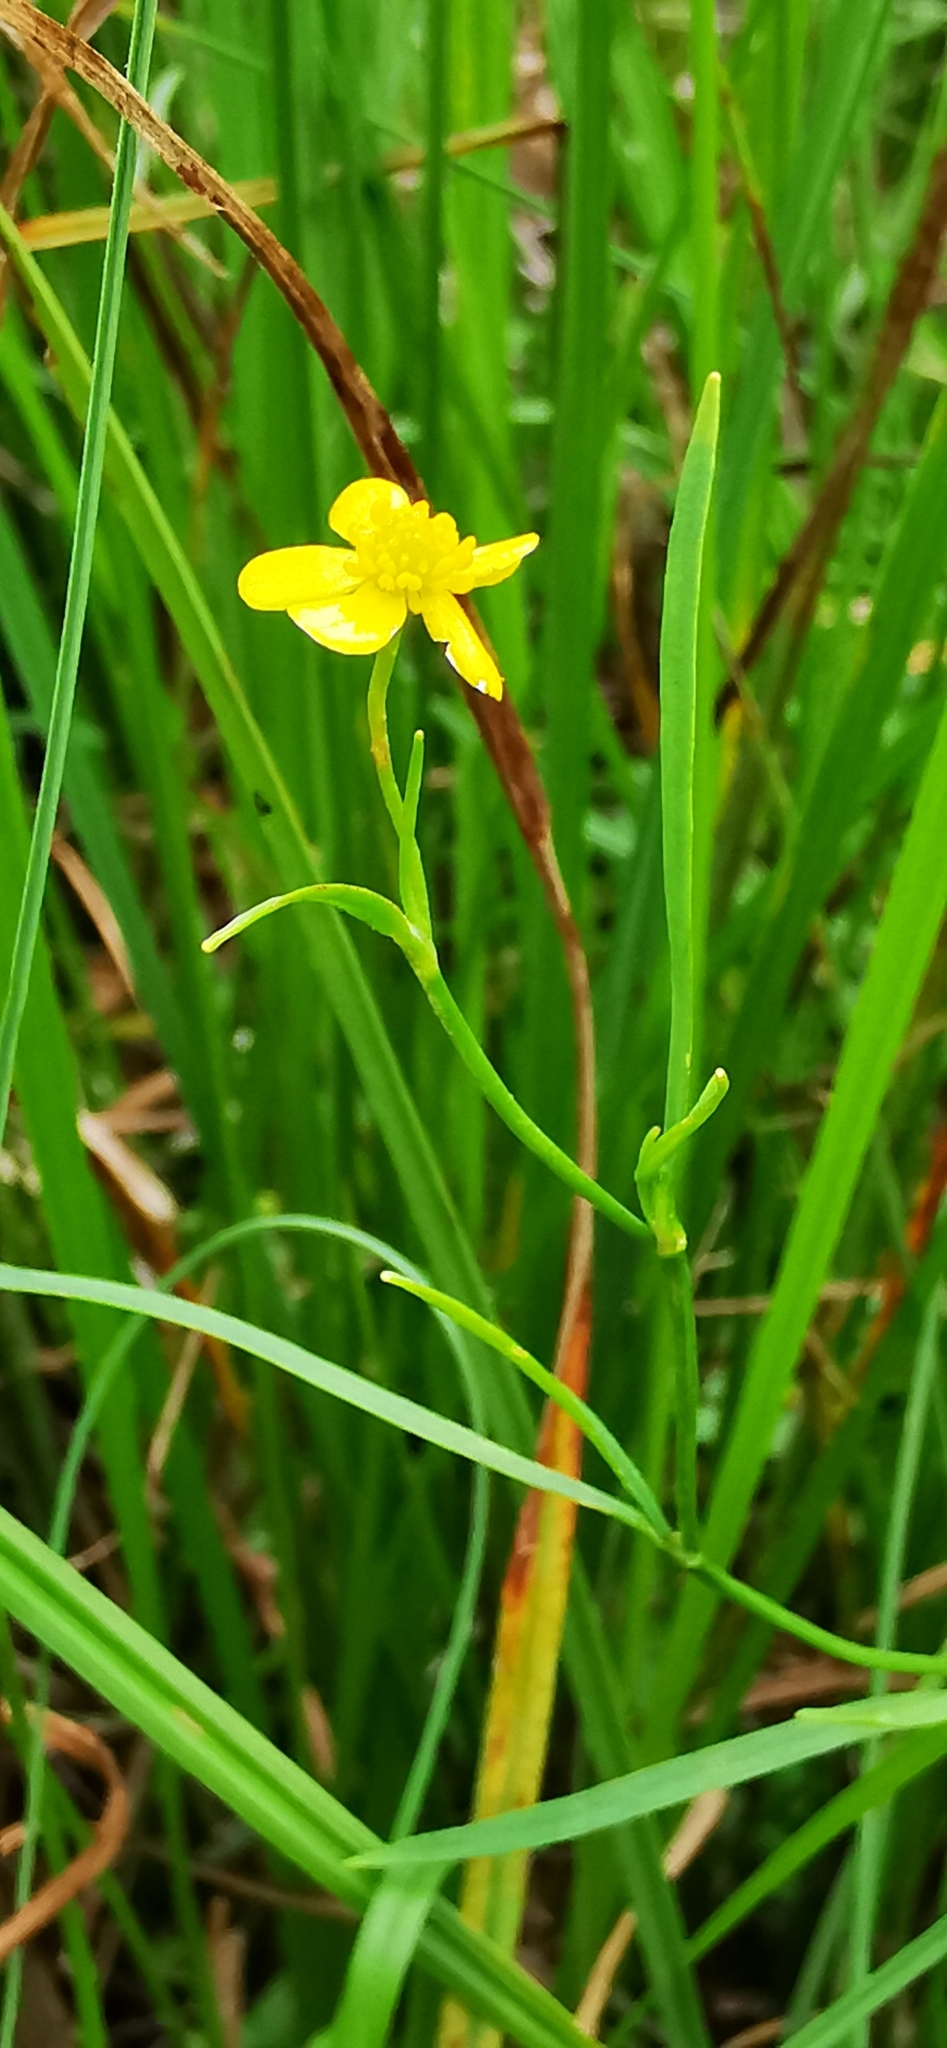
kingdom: Plantae
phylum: Tracheophyta
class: Magnoliopsida
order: Ranunculales
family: Ranunculaceae
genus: Ranunculus
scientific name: Ranunculus repens
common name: Creeping buttercup
